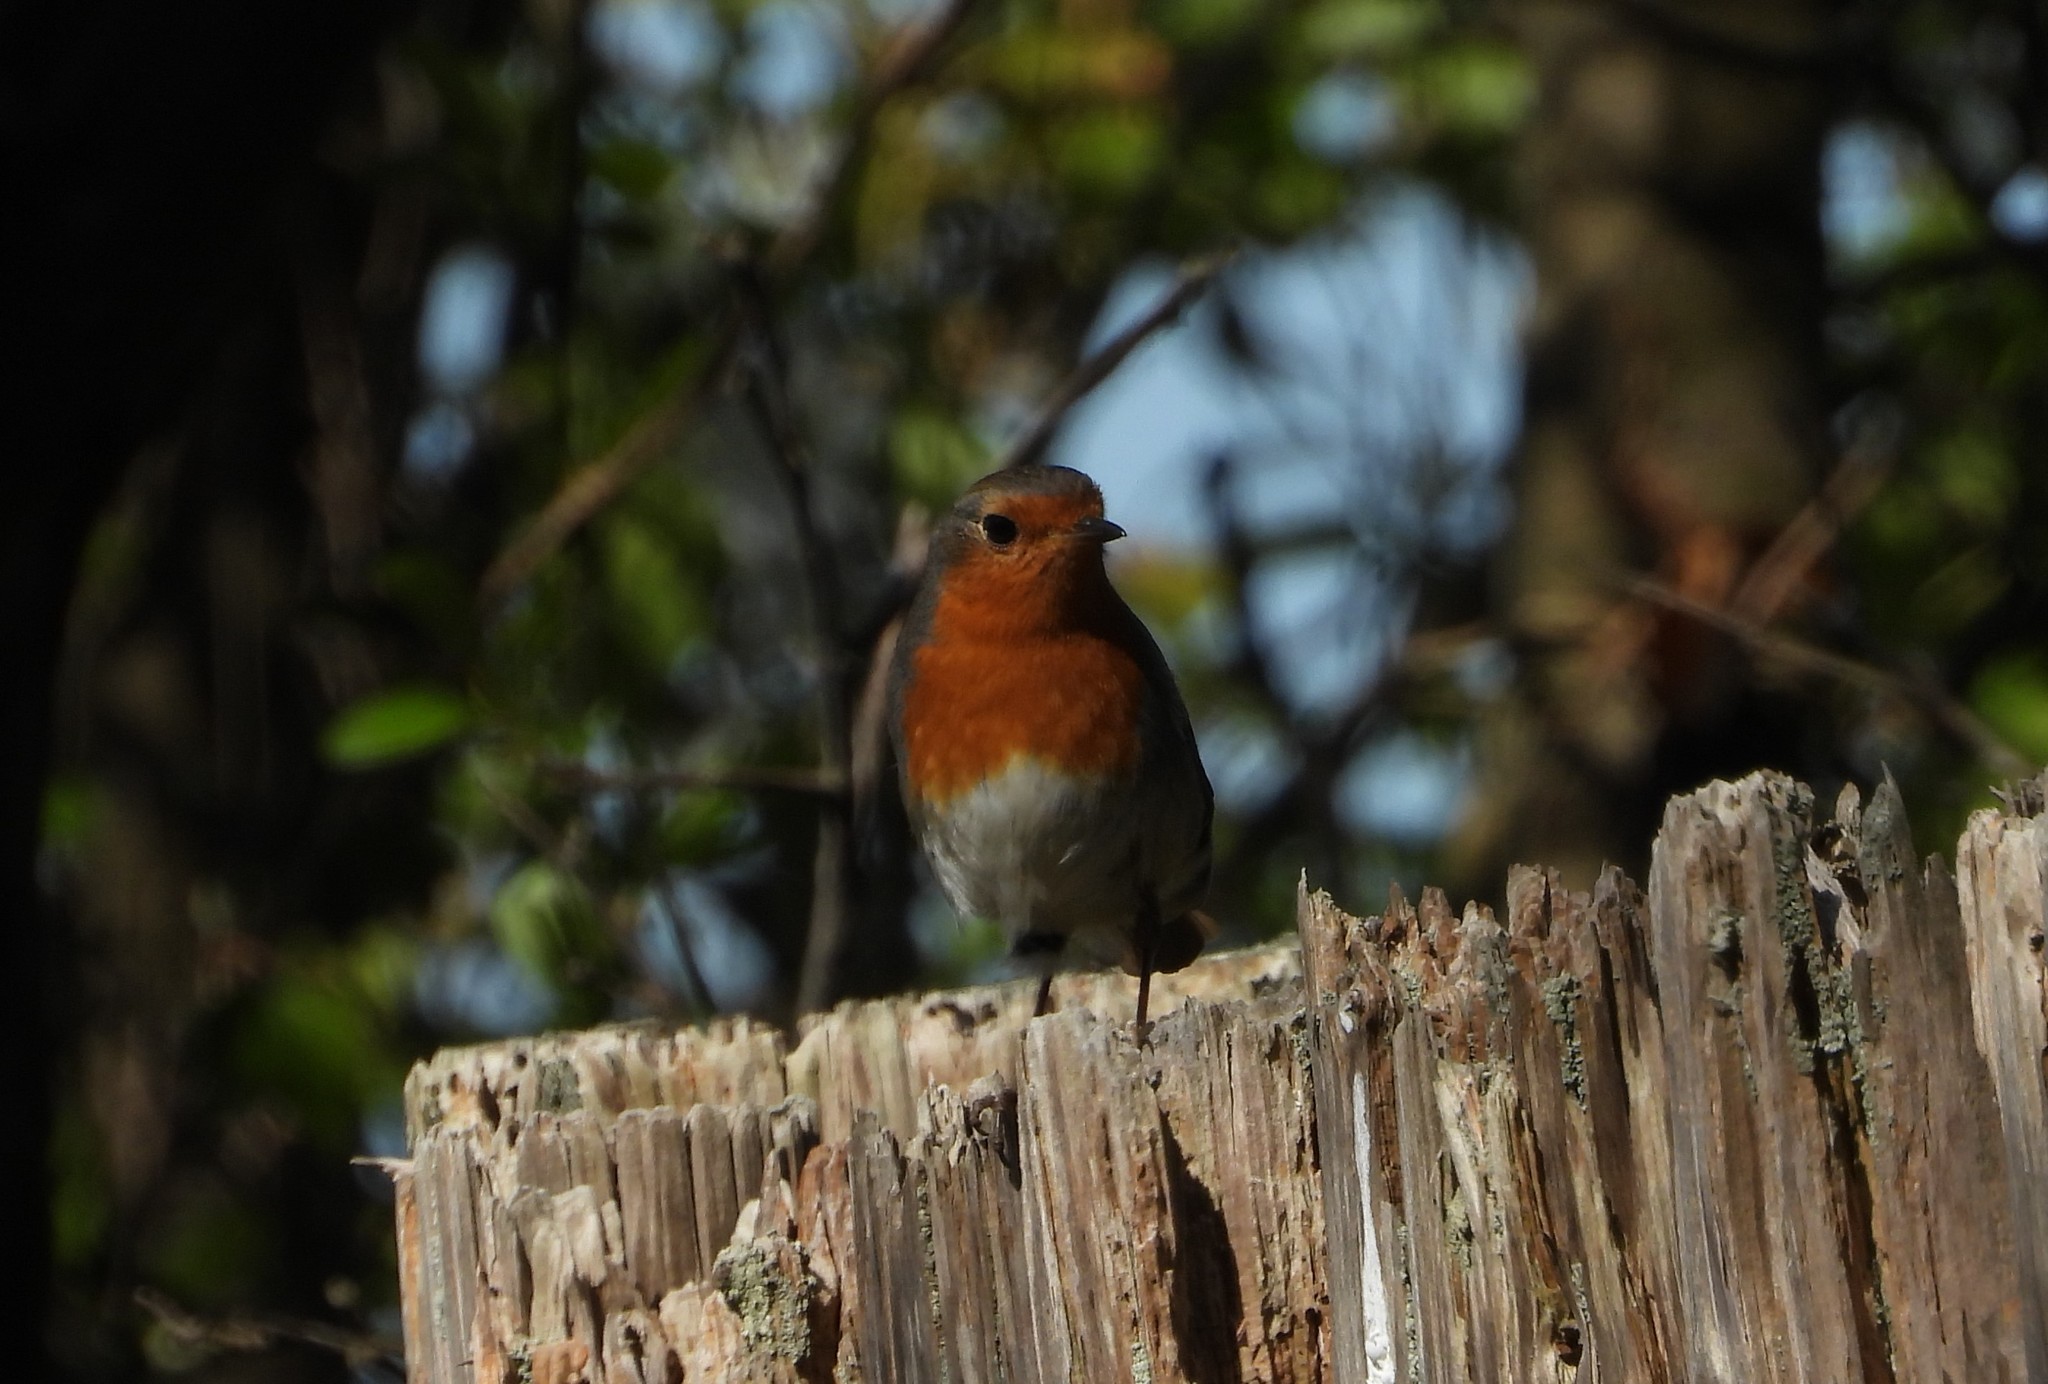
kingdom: Animalia
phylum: Chordata
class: Aves
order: Passeriformes
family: Muscicapidae
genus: Erithacus
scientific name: Erithacus rubecula
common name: European robin
